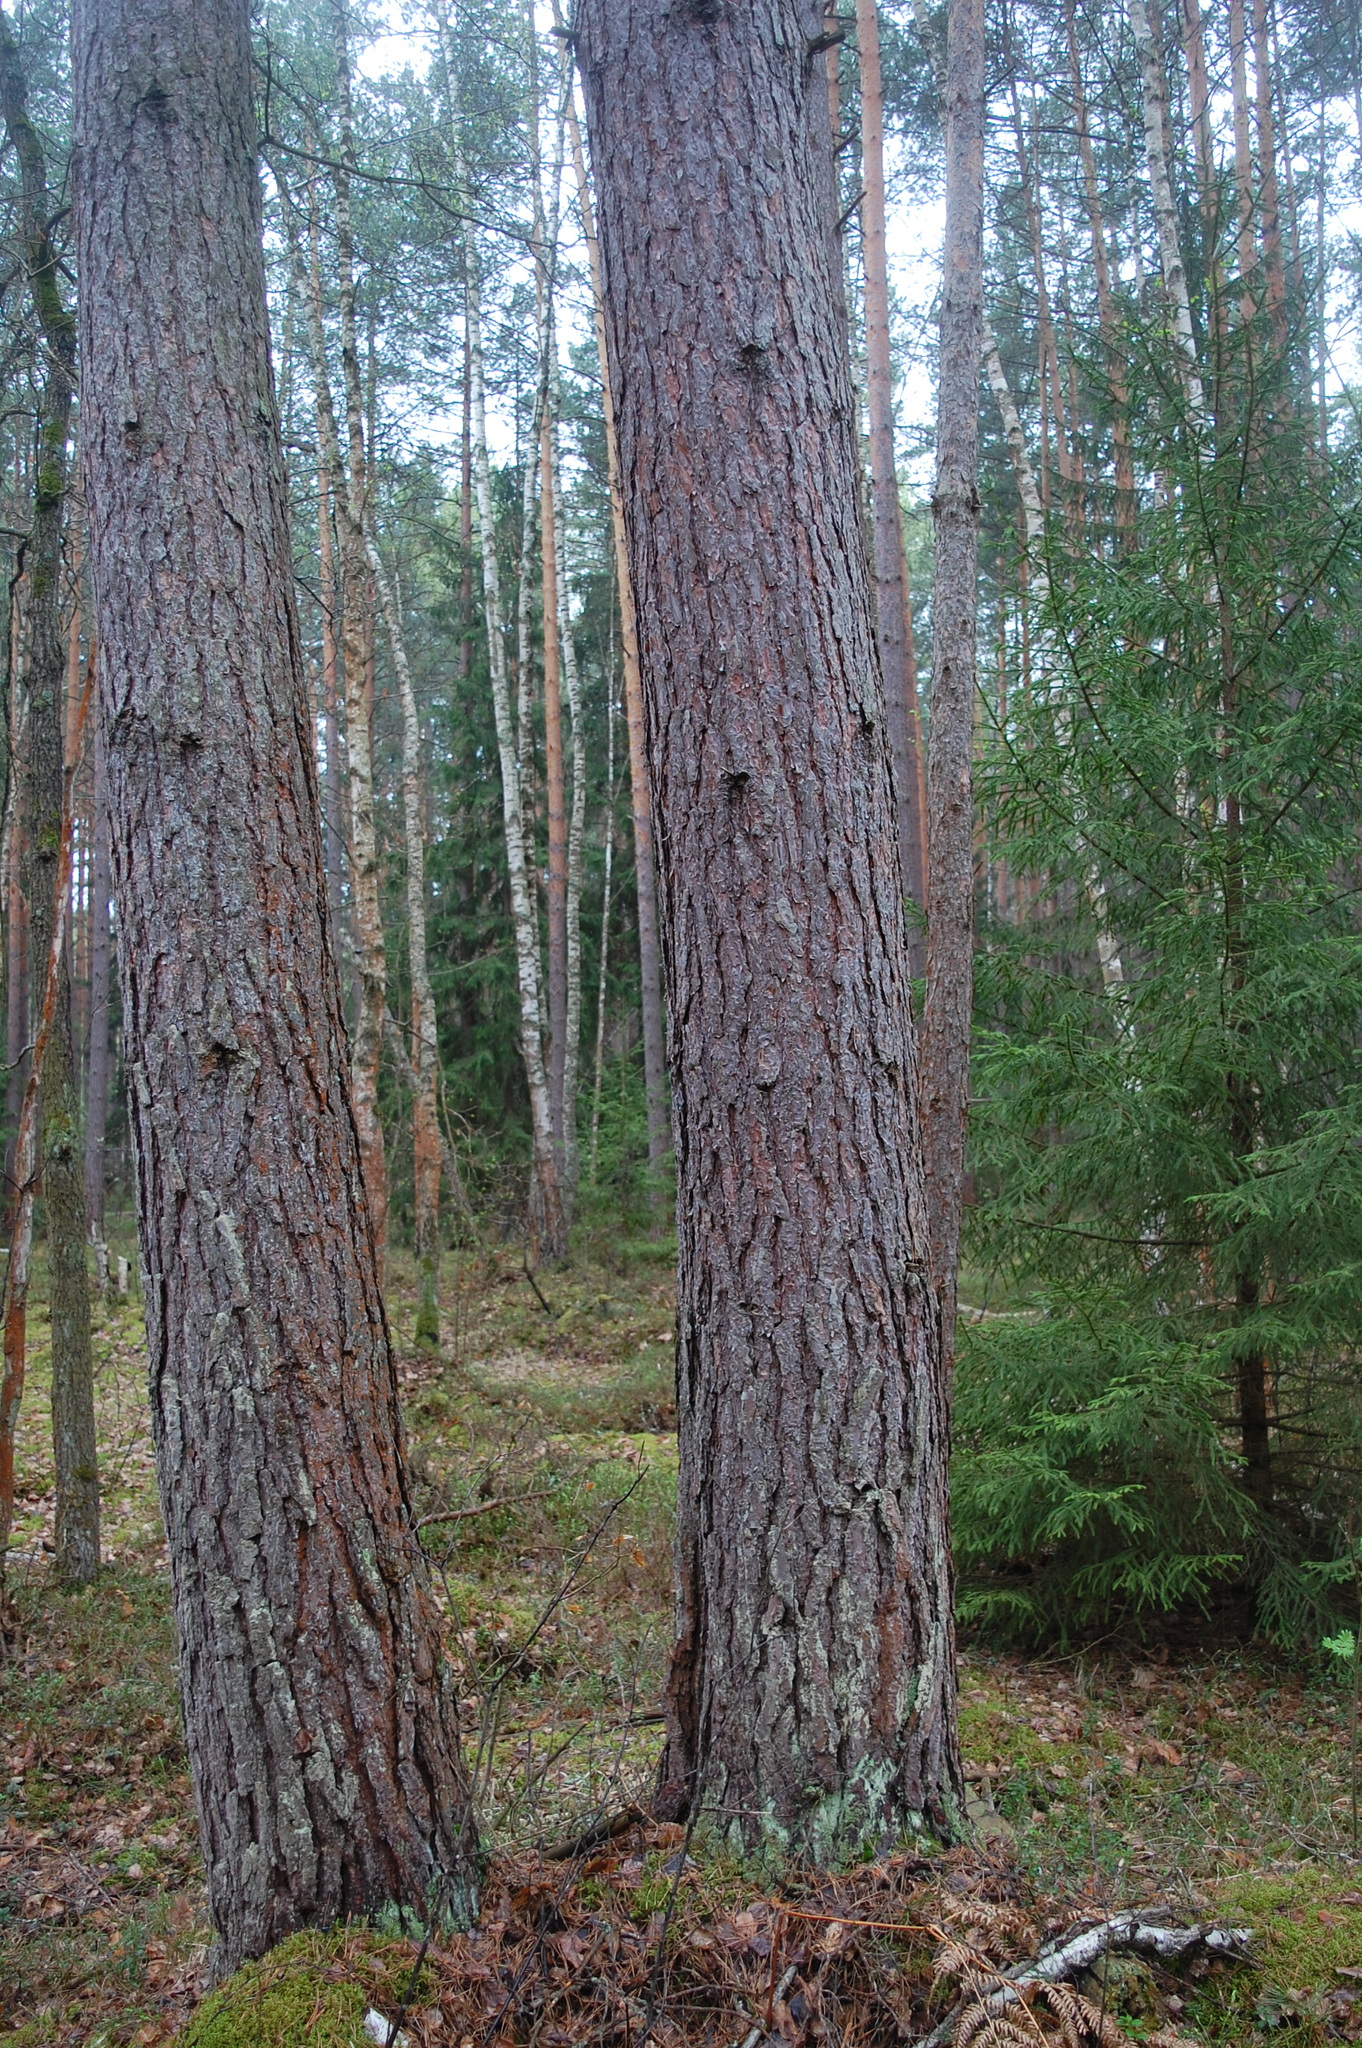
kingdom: Plantae
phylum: Tracheophyta
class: Pinopsida
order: Pinales
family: Pinaceae
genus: Pinus
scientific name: Pinus sylvestris
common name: Scots pine
